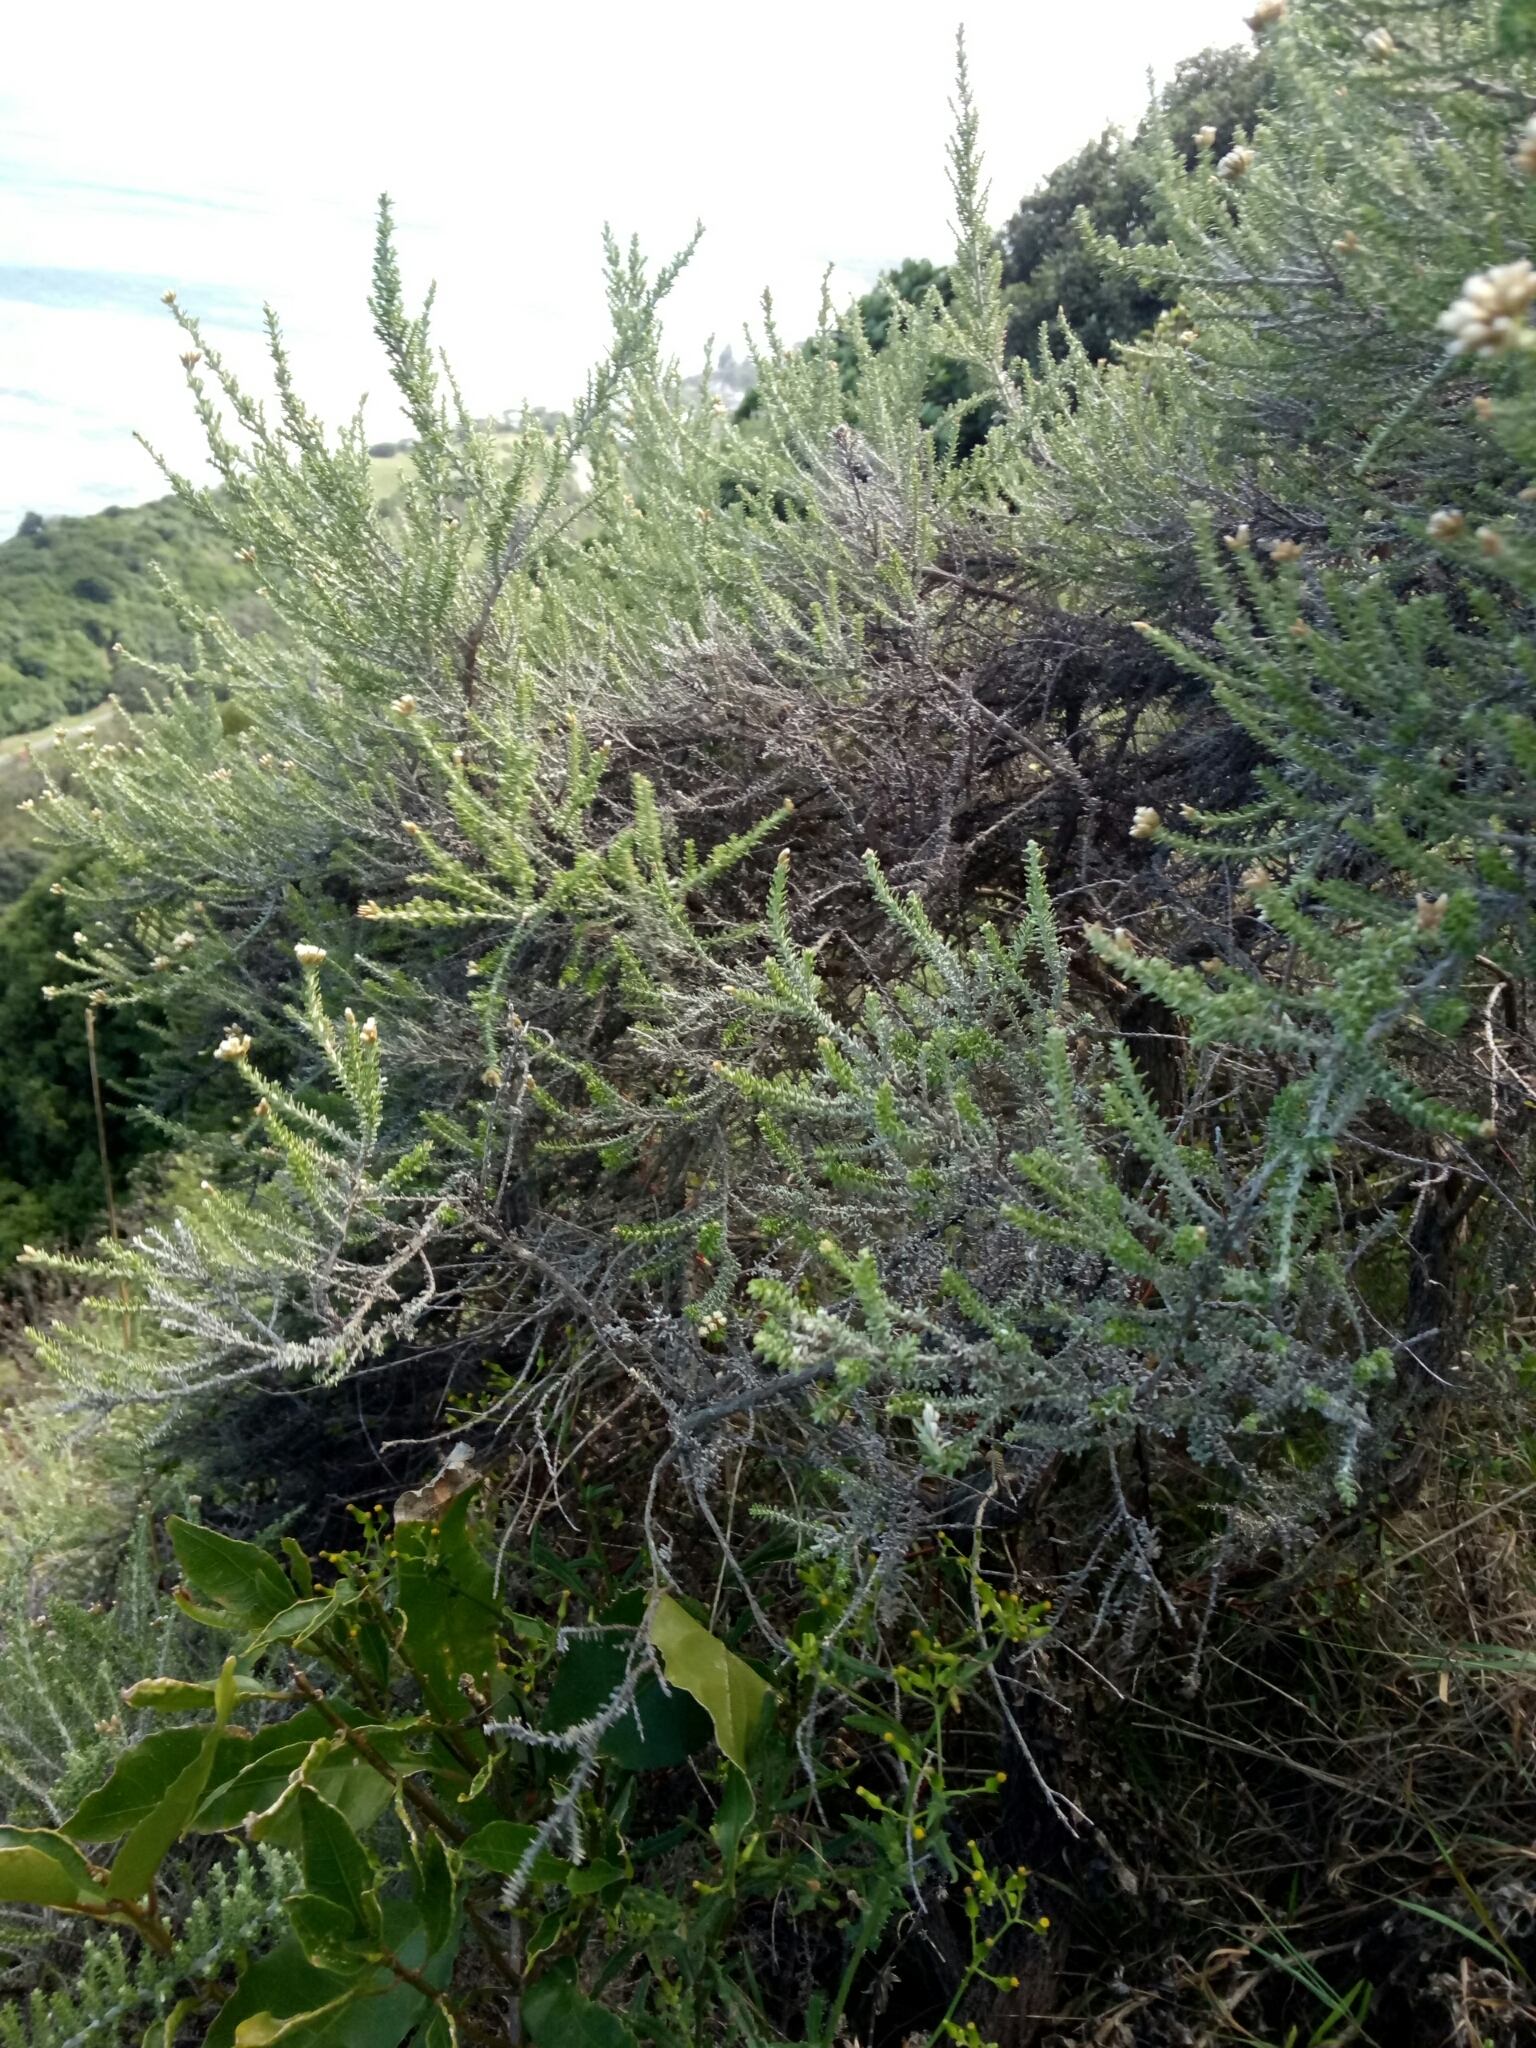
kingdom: Plantae
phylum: Tracheophyta
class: Magnoliopsida
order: Asterales
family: Asteraceae
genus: Ozothamnus
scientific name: Ozothamnus leptophyllus
